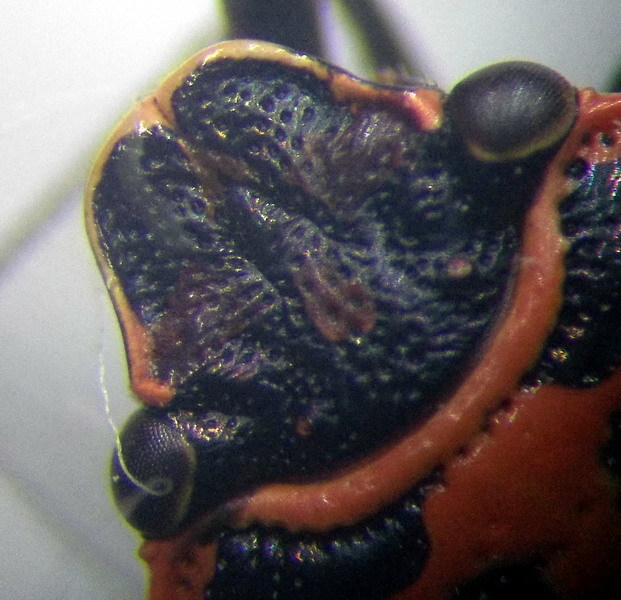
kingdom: Animalia
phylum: Arthropoda
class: Insecta
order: Hemiptera
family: Pentatomidae
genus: Eurydema
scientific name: Eurydema ornata
